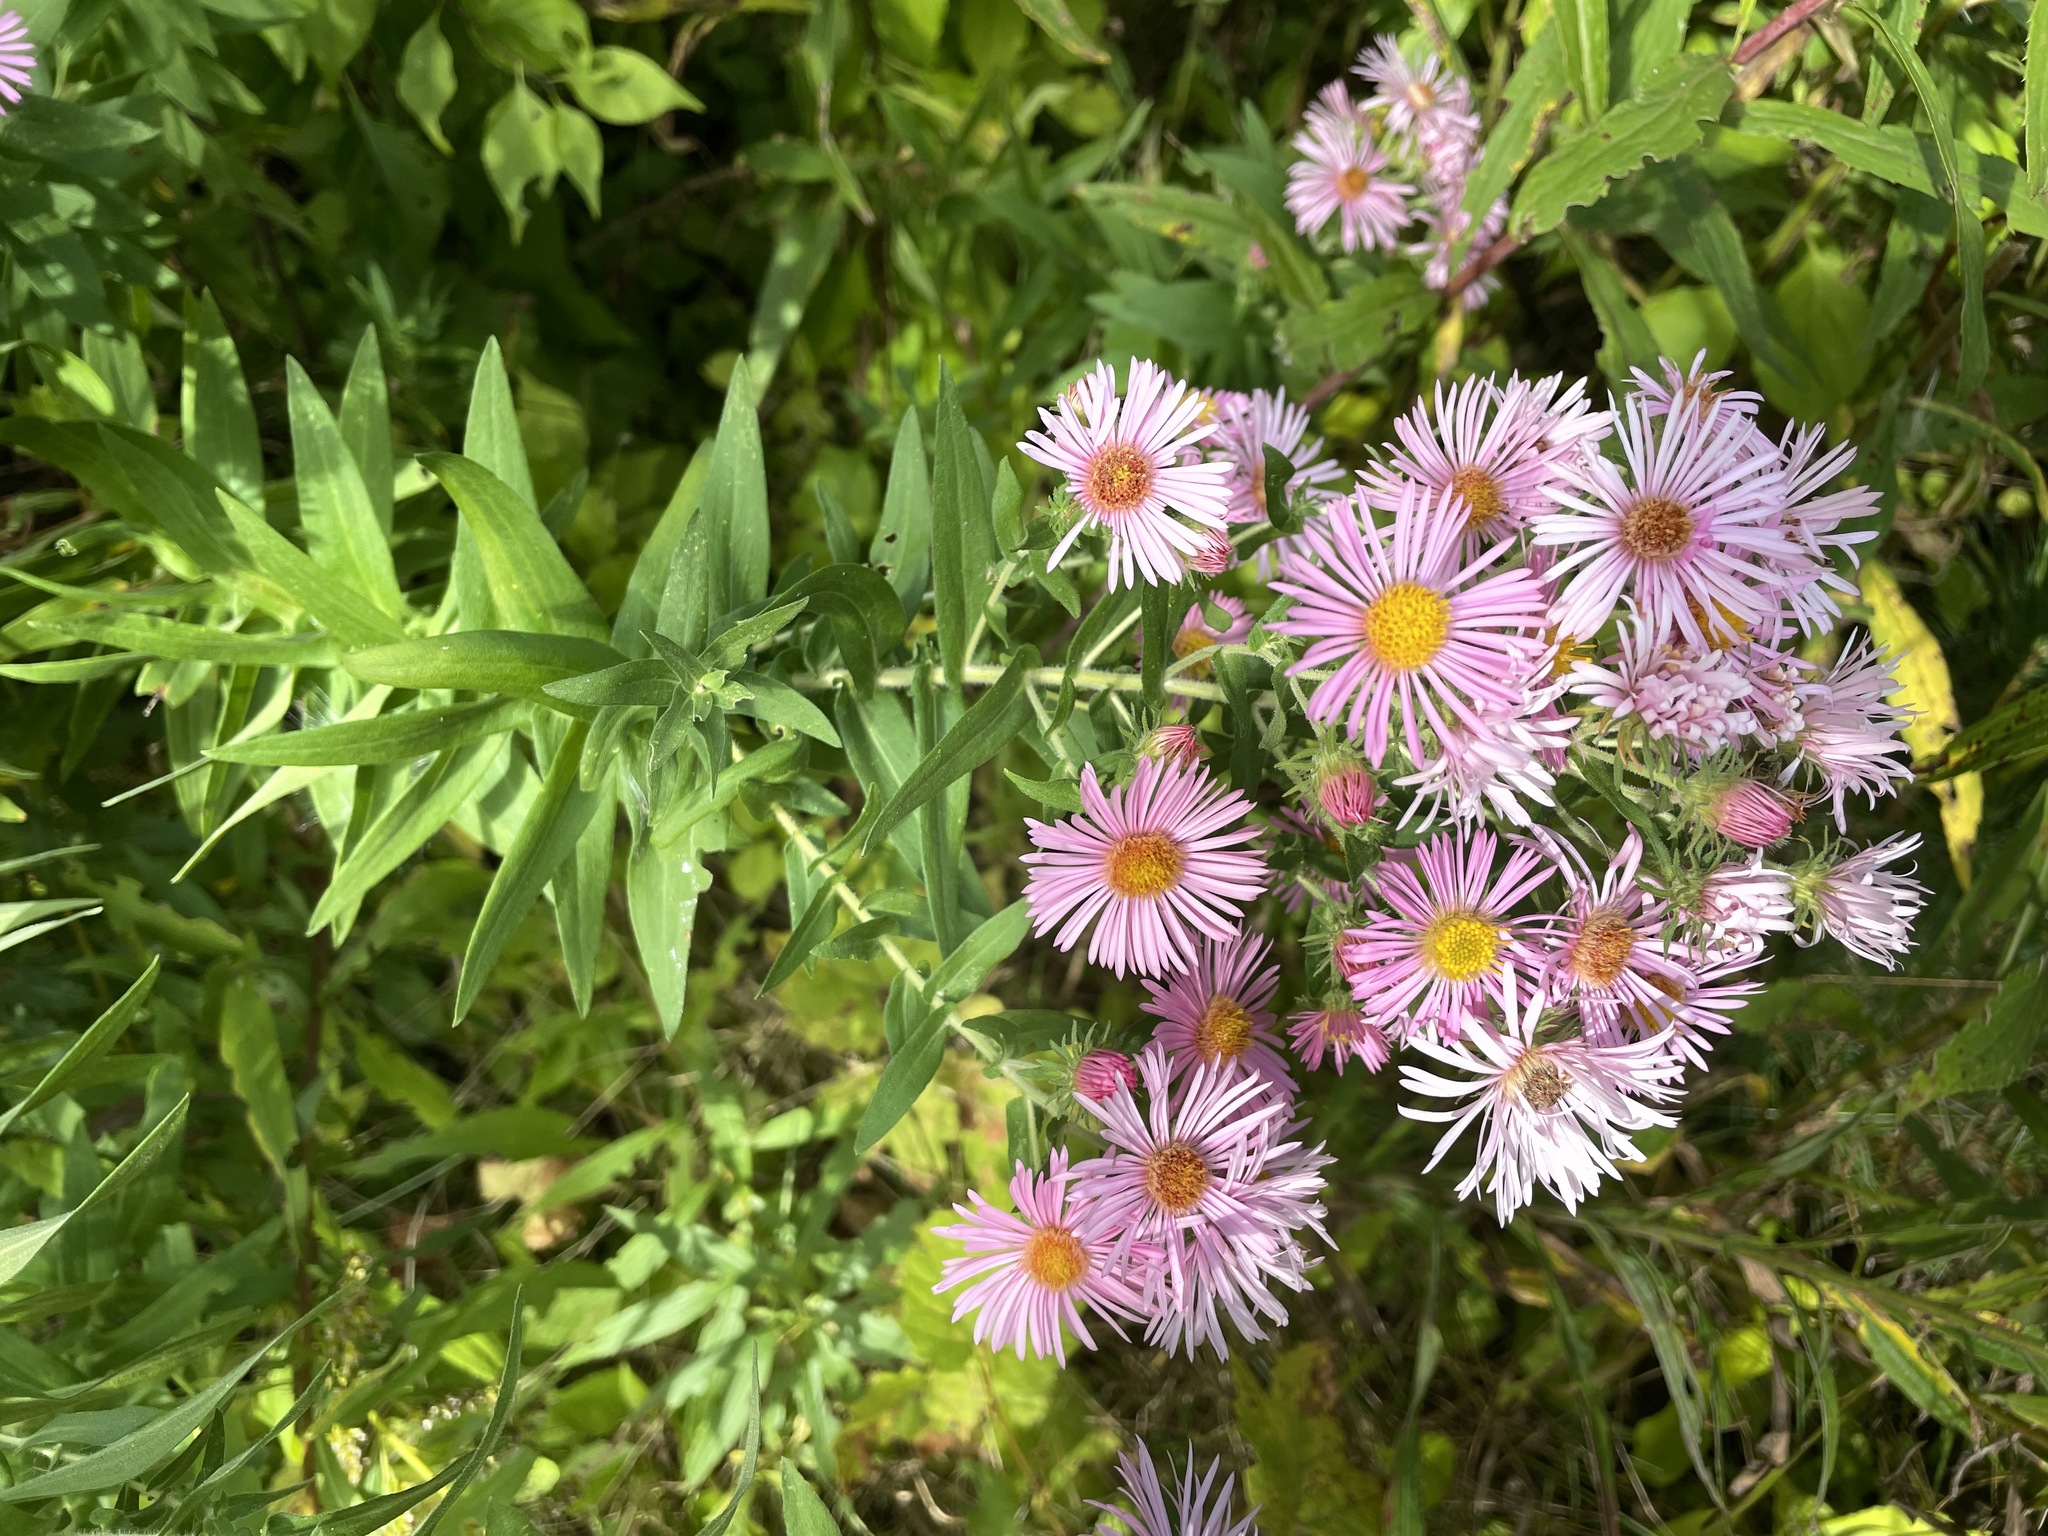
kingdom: Plantae
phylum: Tracheophyta
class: Magnoliopsida
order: Asterales
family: Asteraceae
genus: Symphyotrichum
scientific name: Symphyotrichum novae-angliae
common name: Michaelmas daisy
